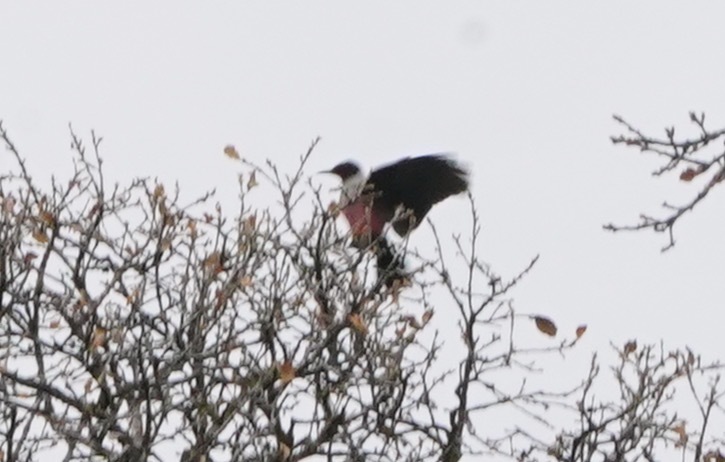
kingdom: Animalia
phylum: Chordata
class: Aves
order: Piciformes
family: Picidae
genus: Melanerpes
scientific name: Melanerpes lewis
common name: Lewis's woodpecker
